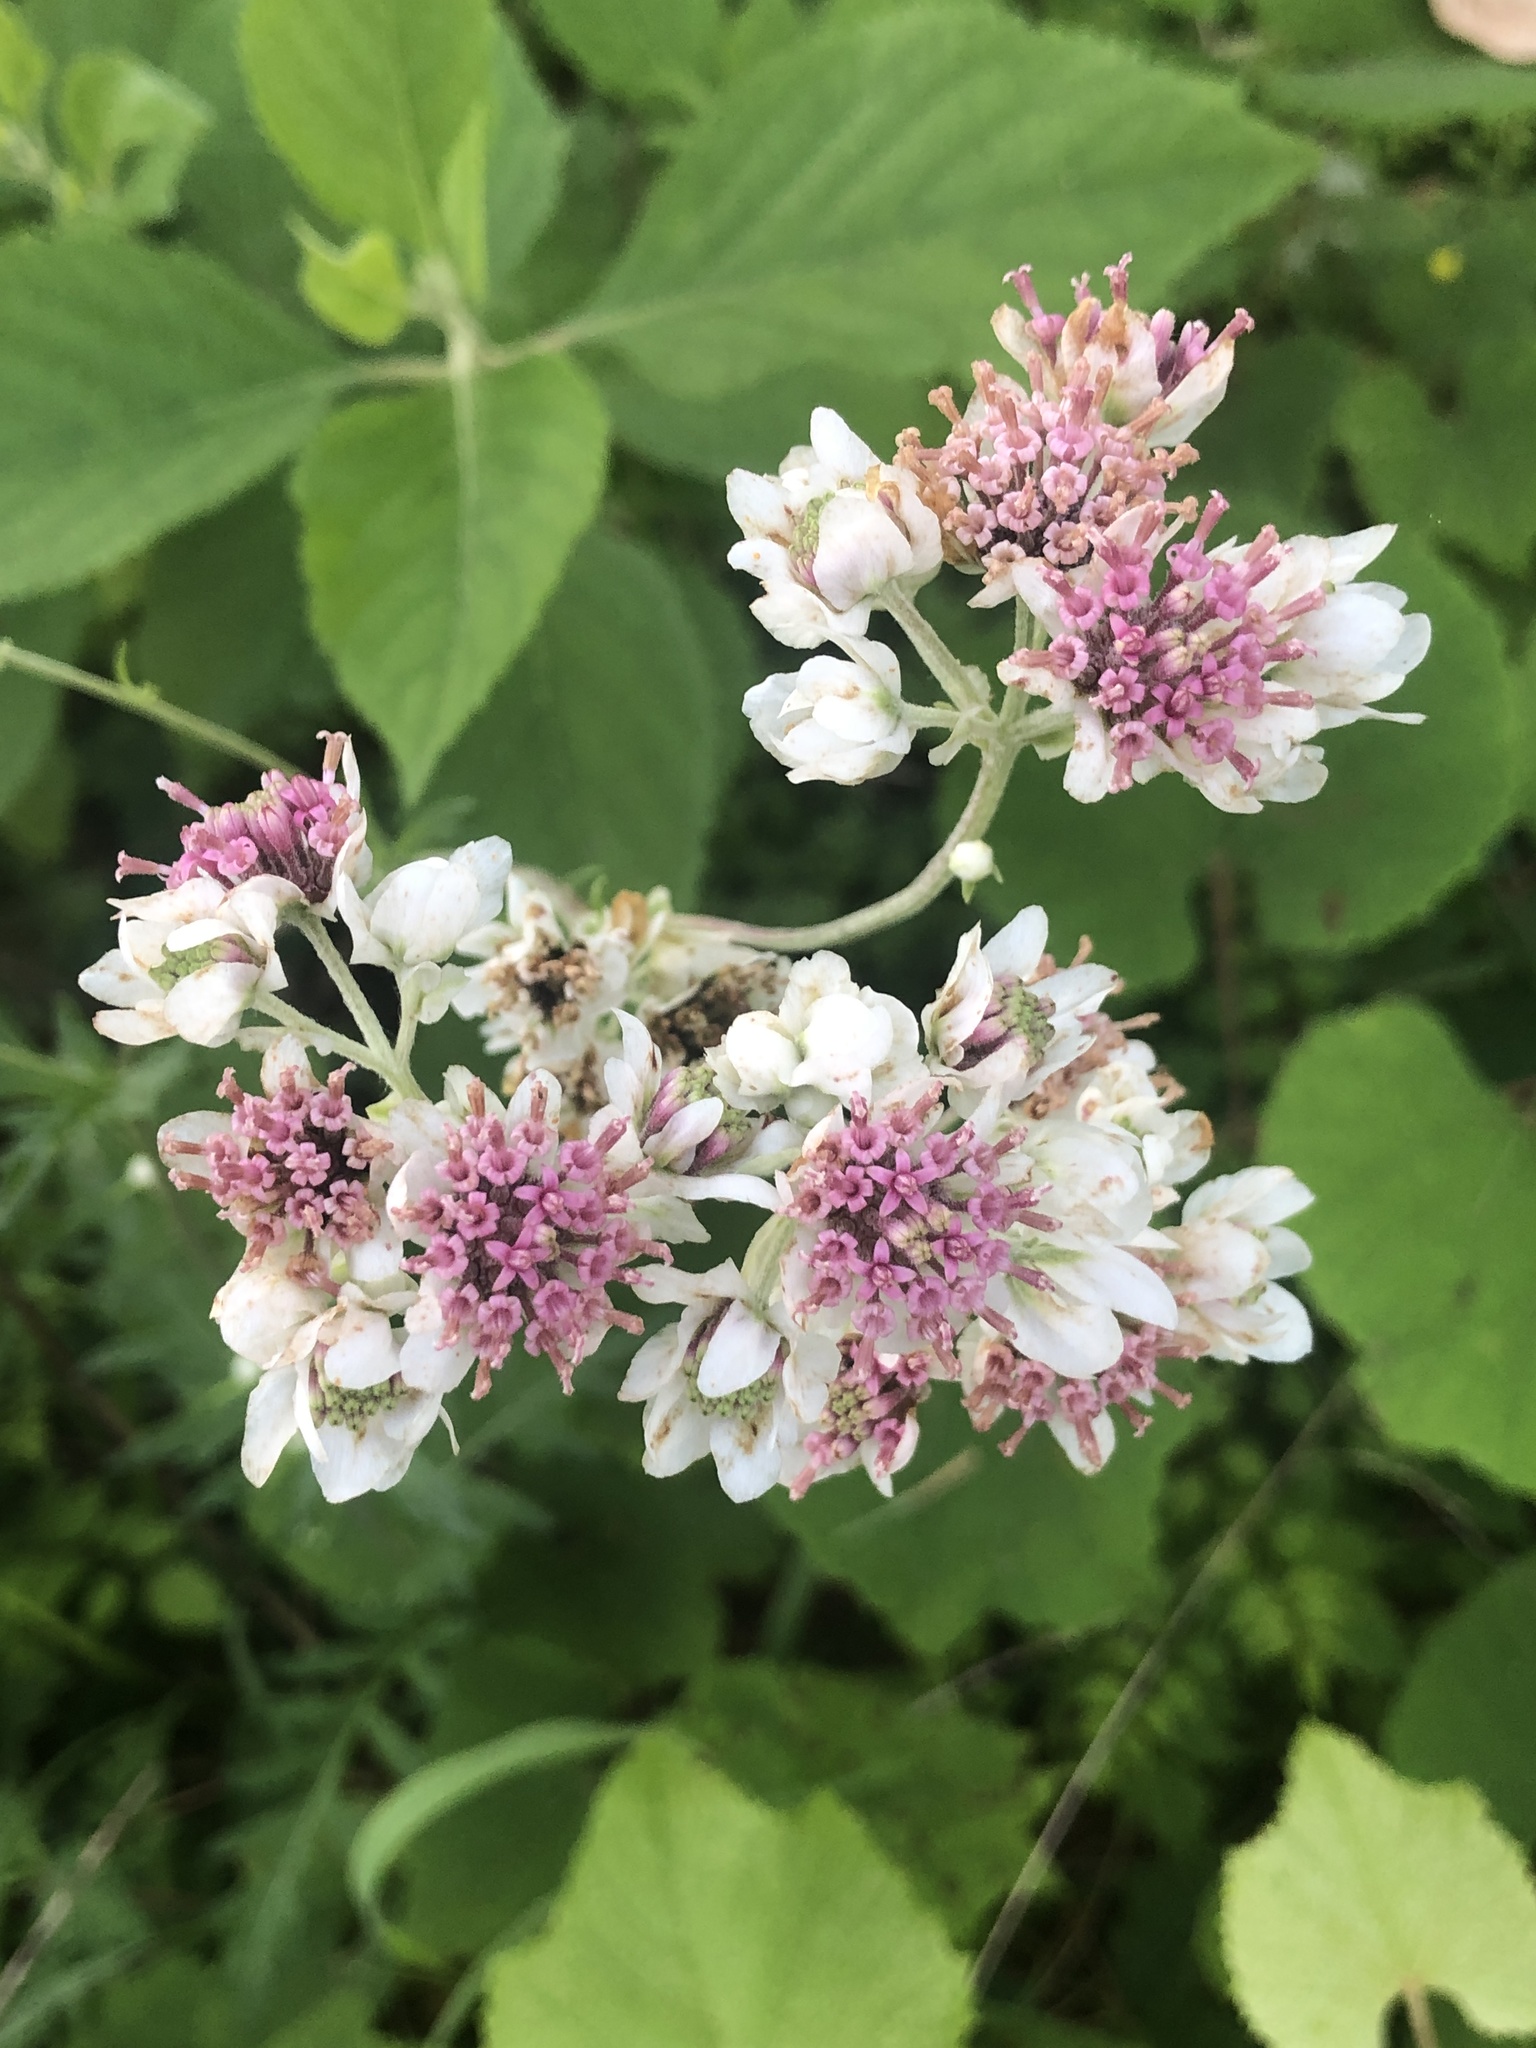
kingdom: Plantae
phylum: Tracheophyta
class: Magnoliopsida
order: Asterales
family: Asteraceae
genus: Hymenopappus
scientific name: Hymenopappus artemisiifolius
